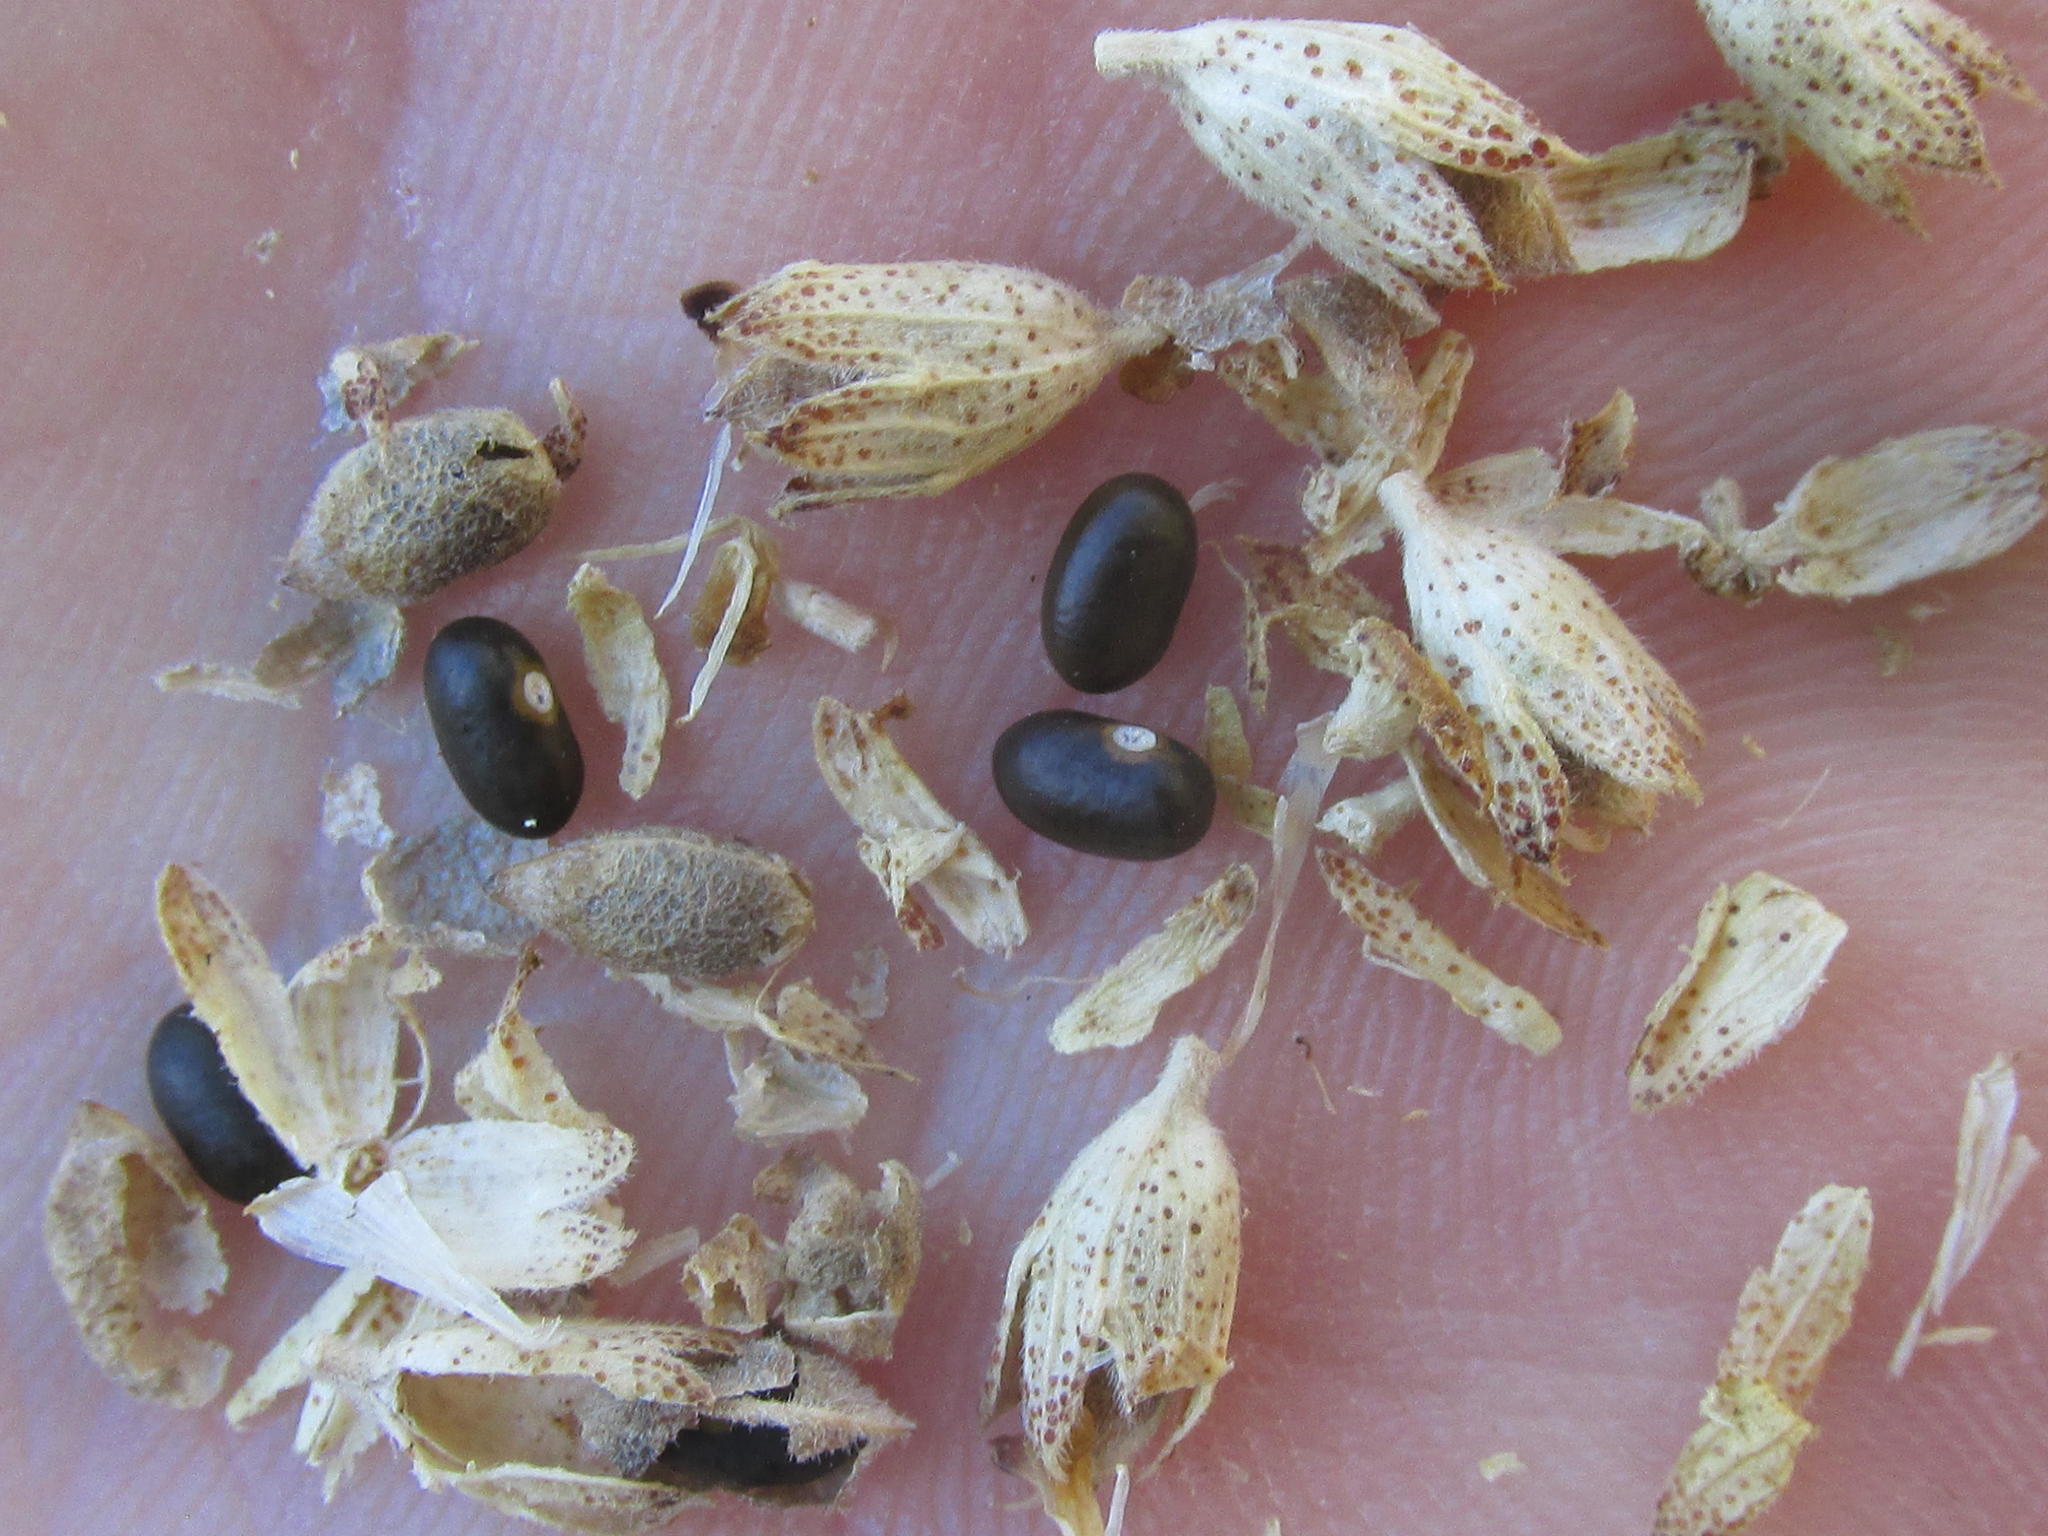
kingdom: Plantae
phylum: Tracheophyta
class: Magnoliopsida
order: Fabales
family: Fabaceae
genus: Psoralea
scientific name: Psoralea striata
